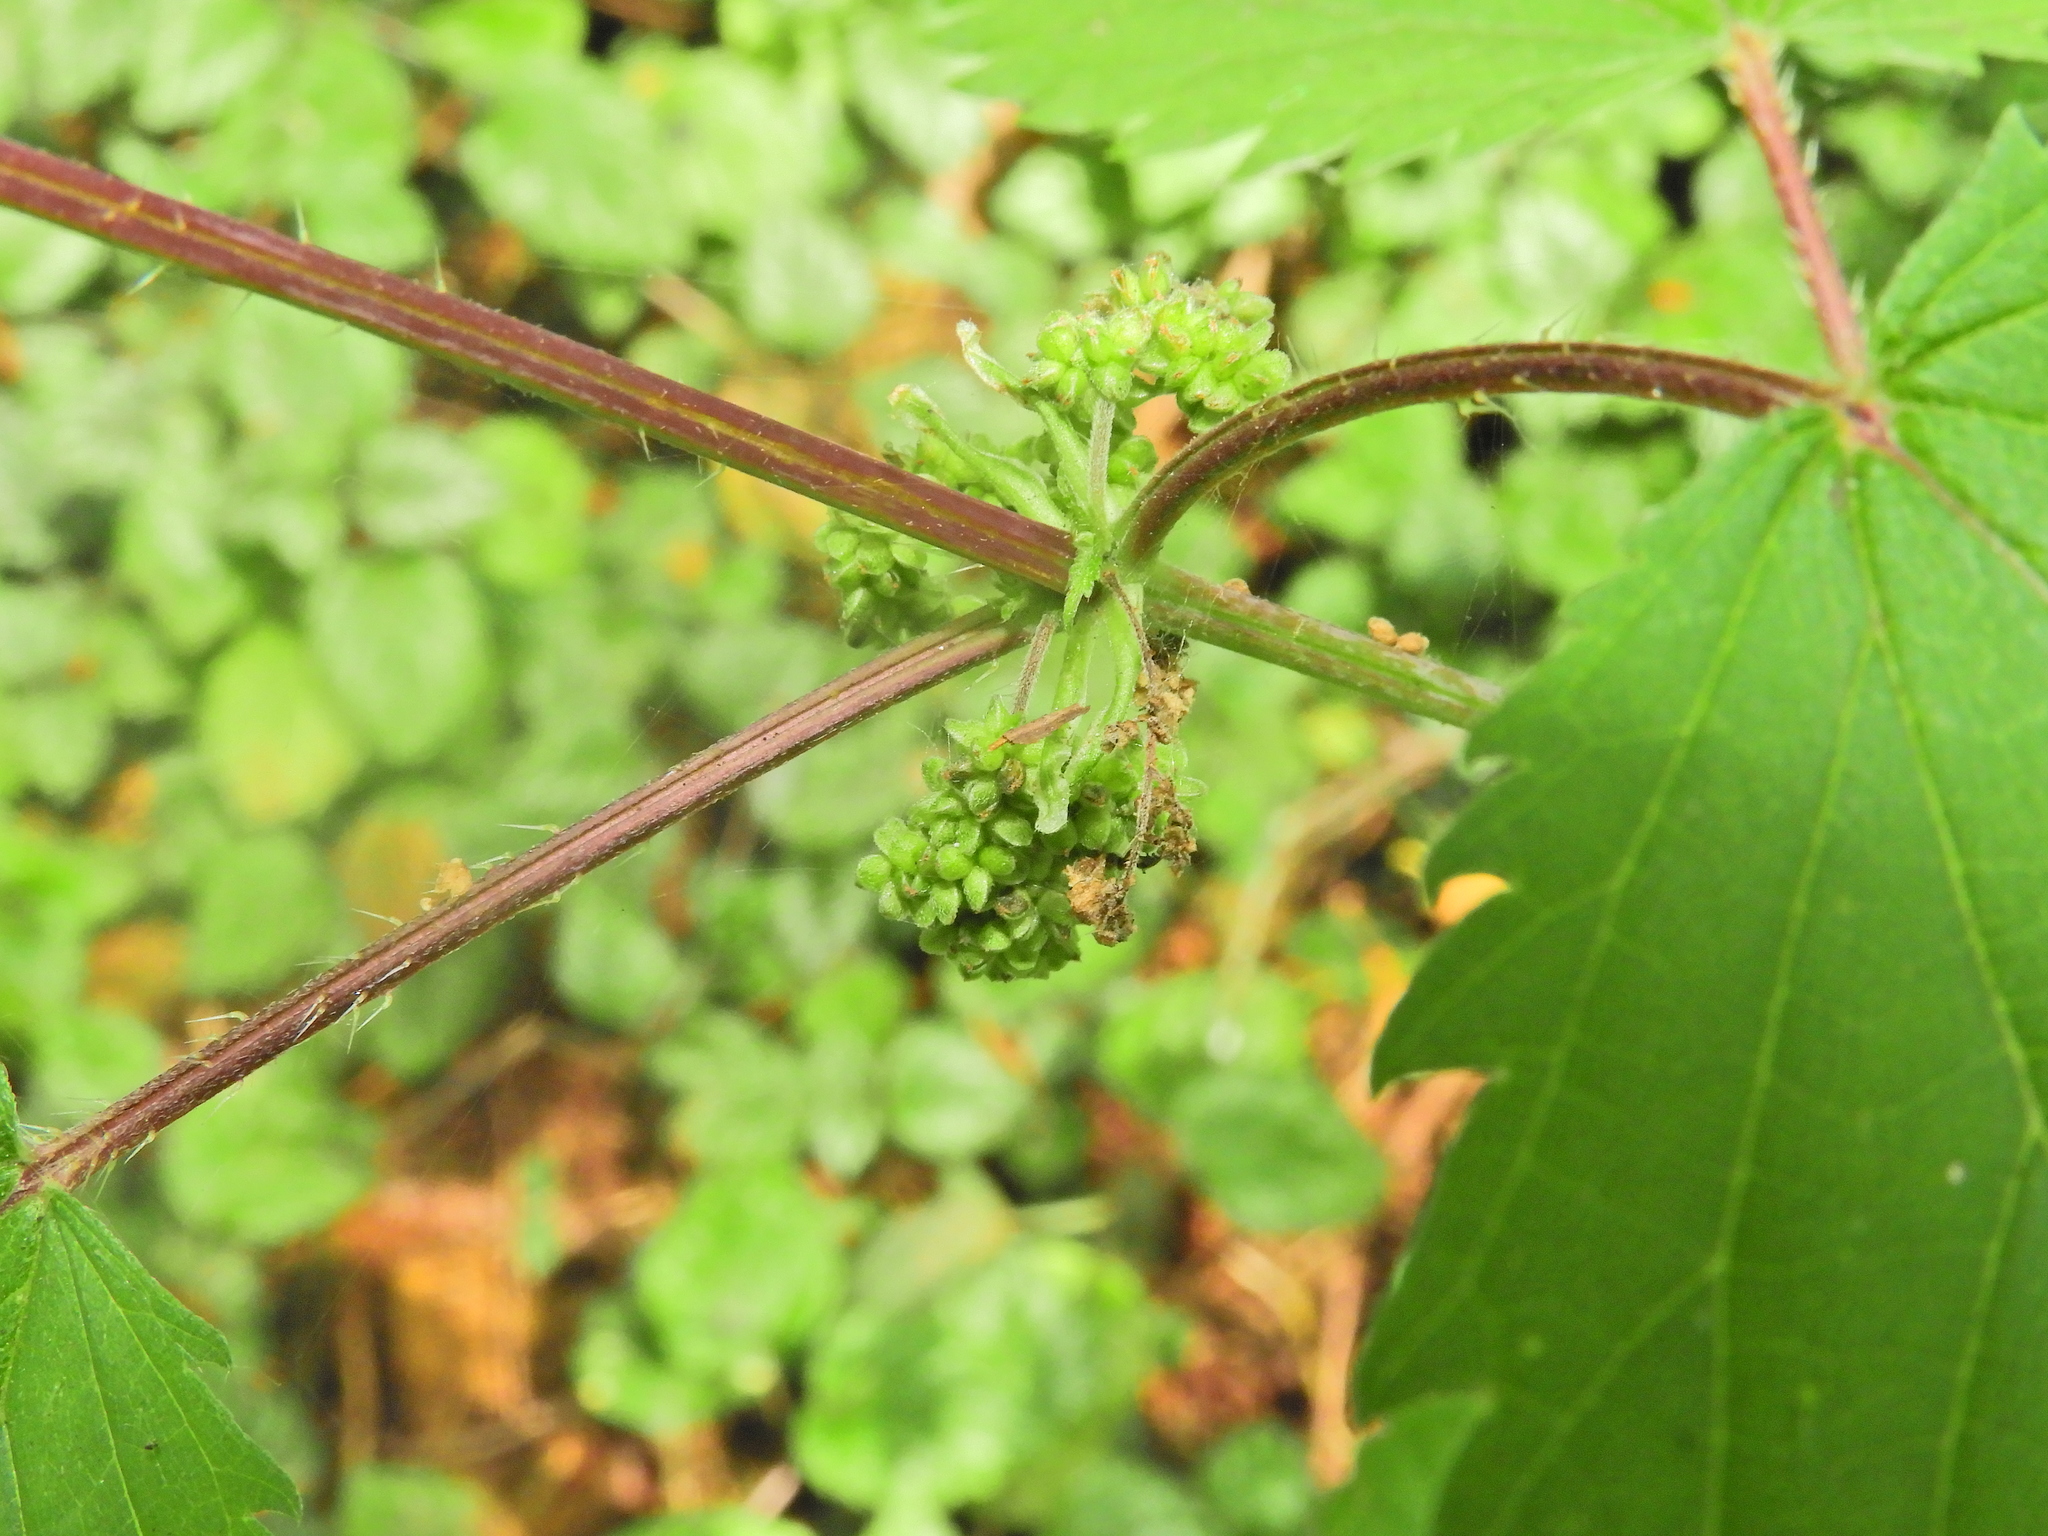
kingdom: Plantae
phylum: Tracheophyta
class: Magnoliopsida
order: Rosales
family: Urticaceae
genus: Urtica
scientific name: Urtica dioica
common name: Common nettle
